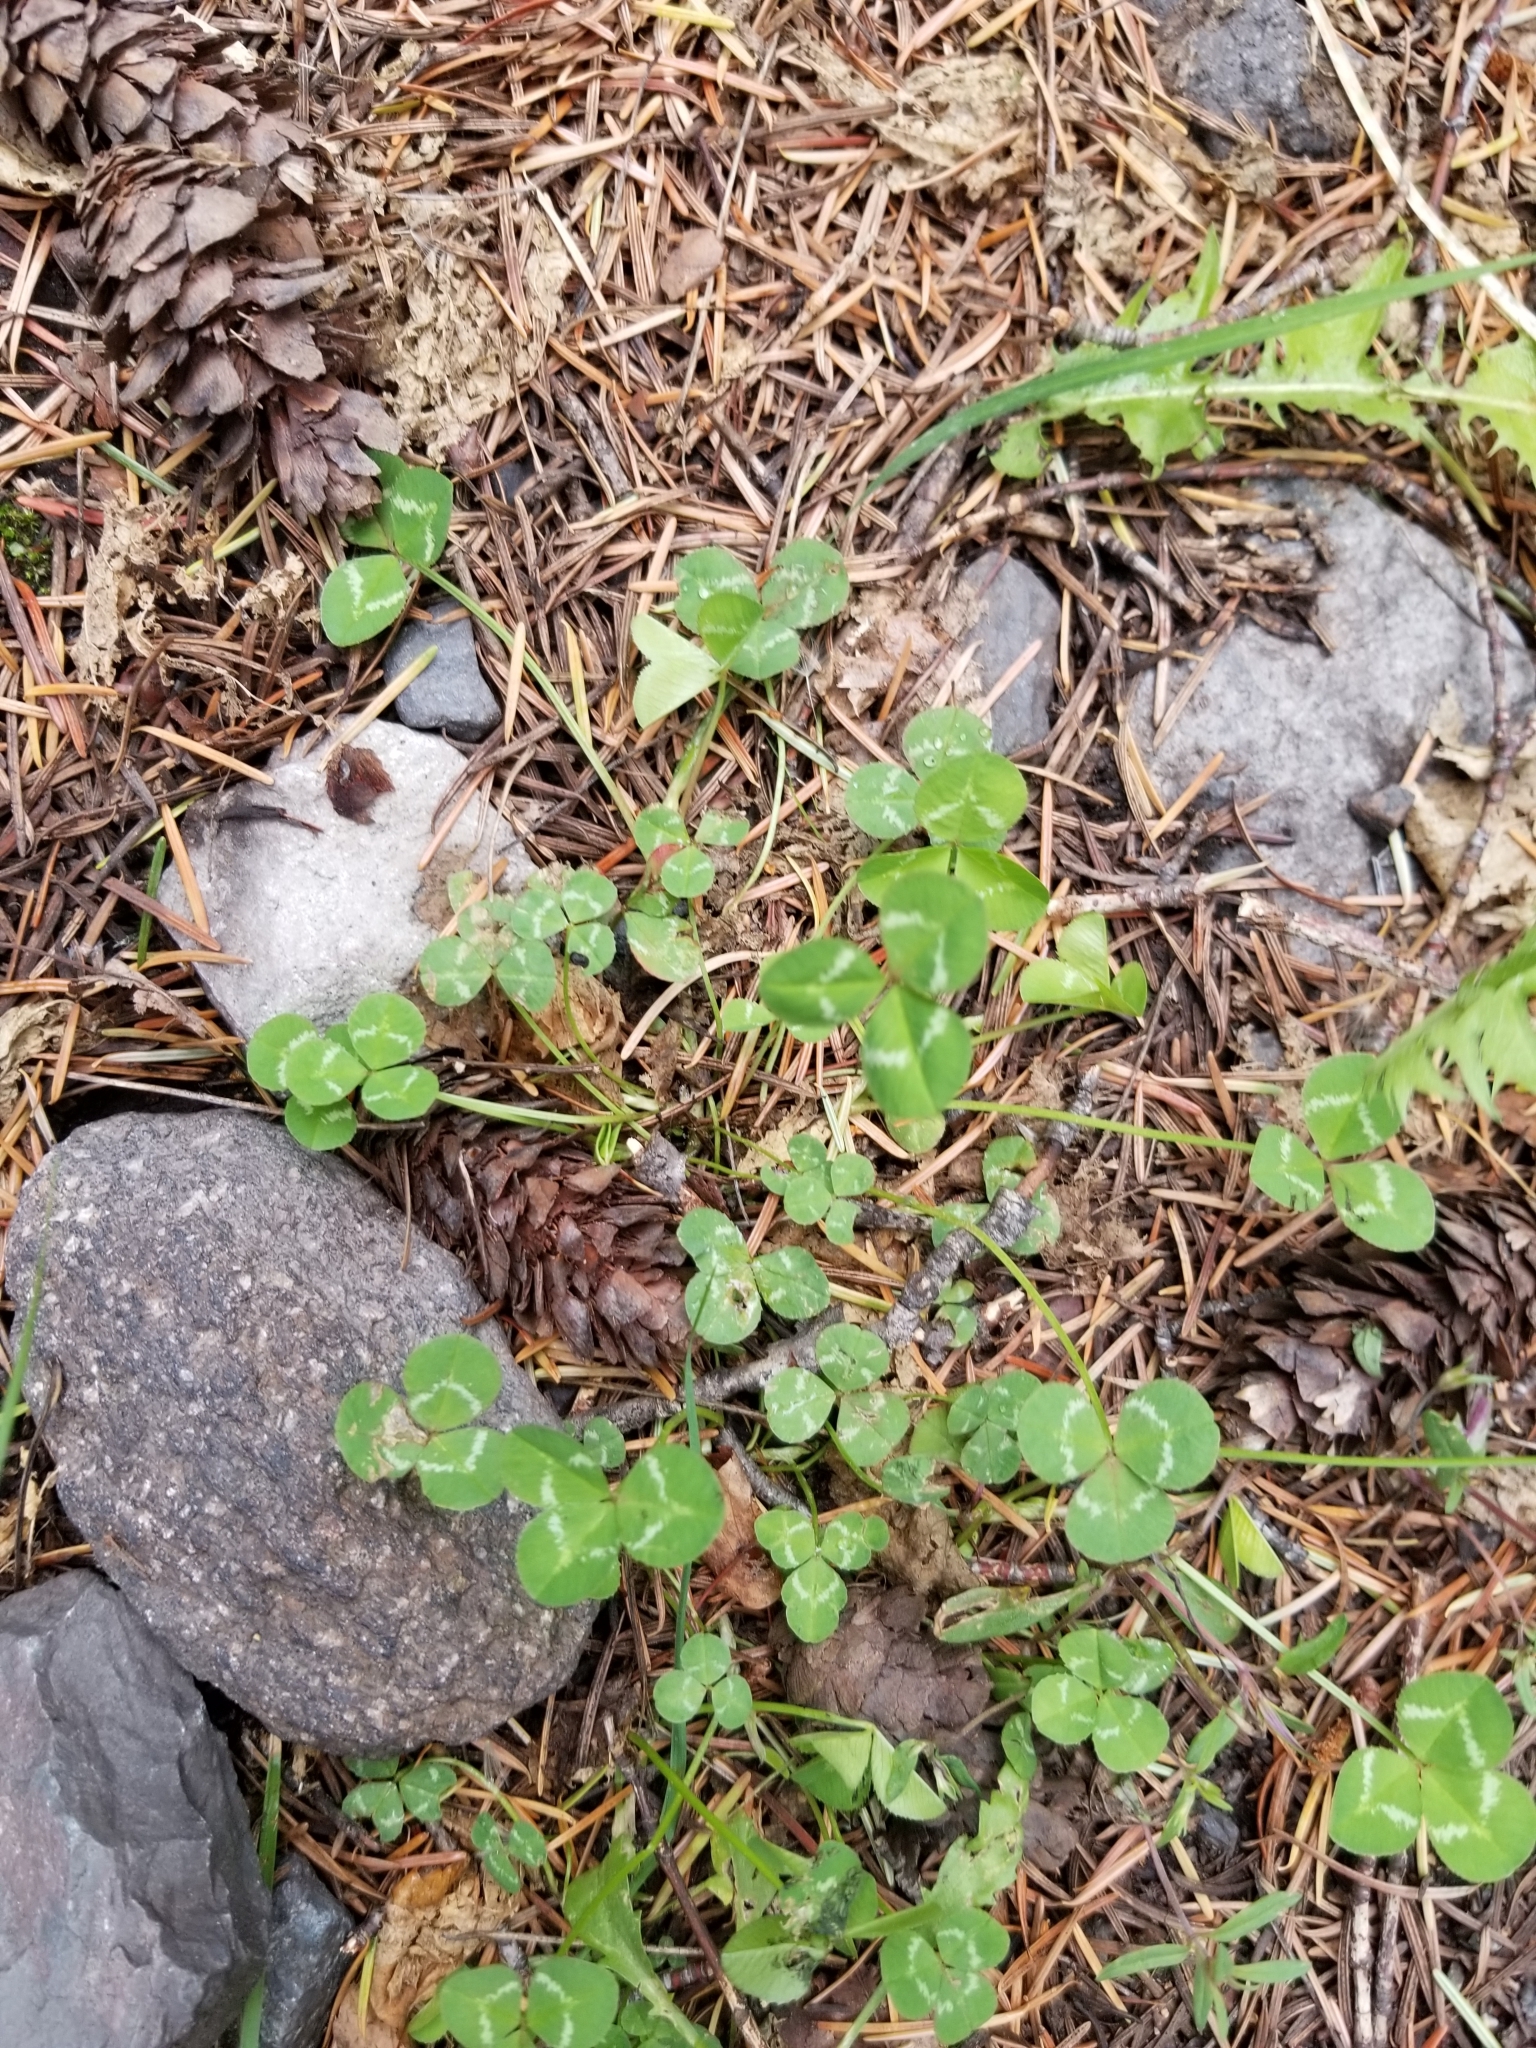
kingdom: Plantae
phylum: Tracheophyta
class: Magnoliopsida
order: Fabales
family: Fabaceae
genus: Trifolium
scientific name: Trifolium repens
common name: White clover
